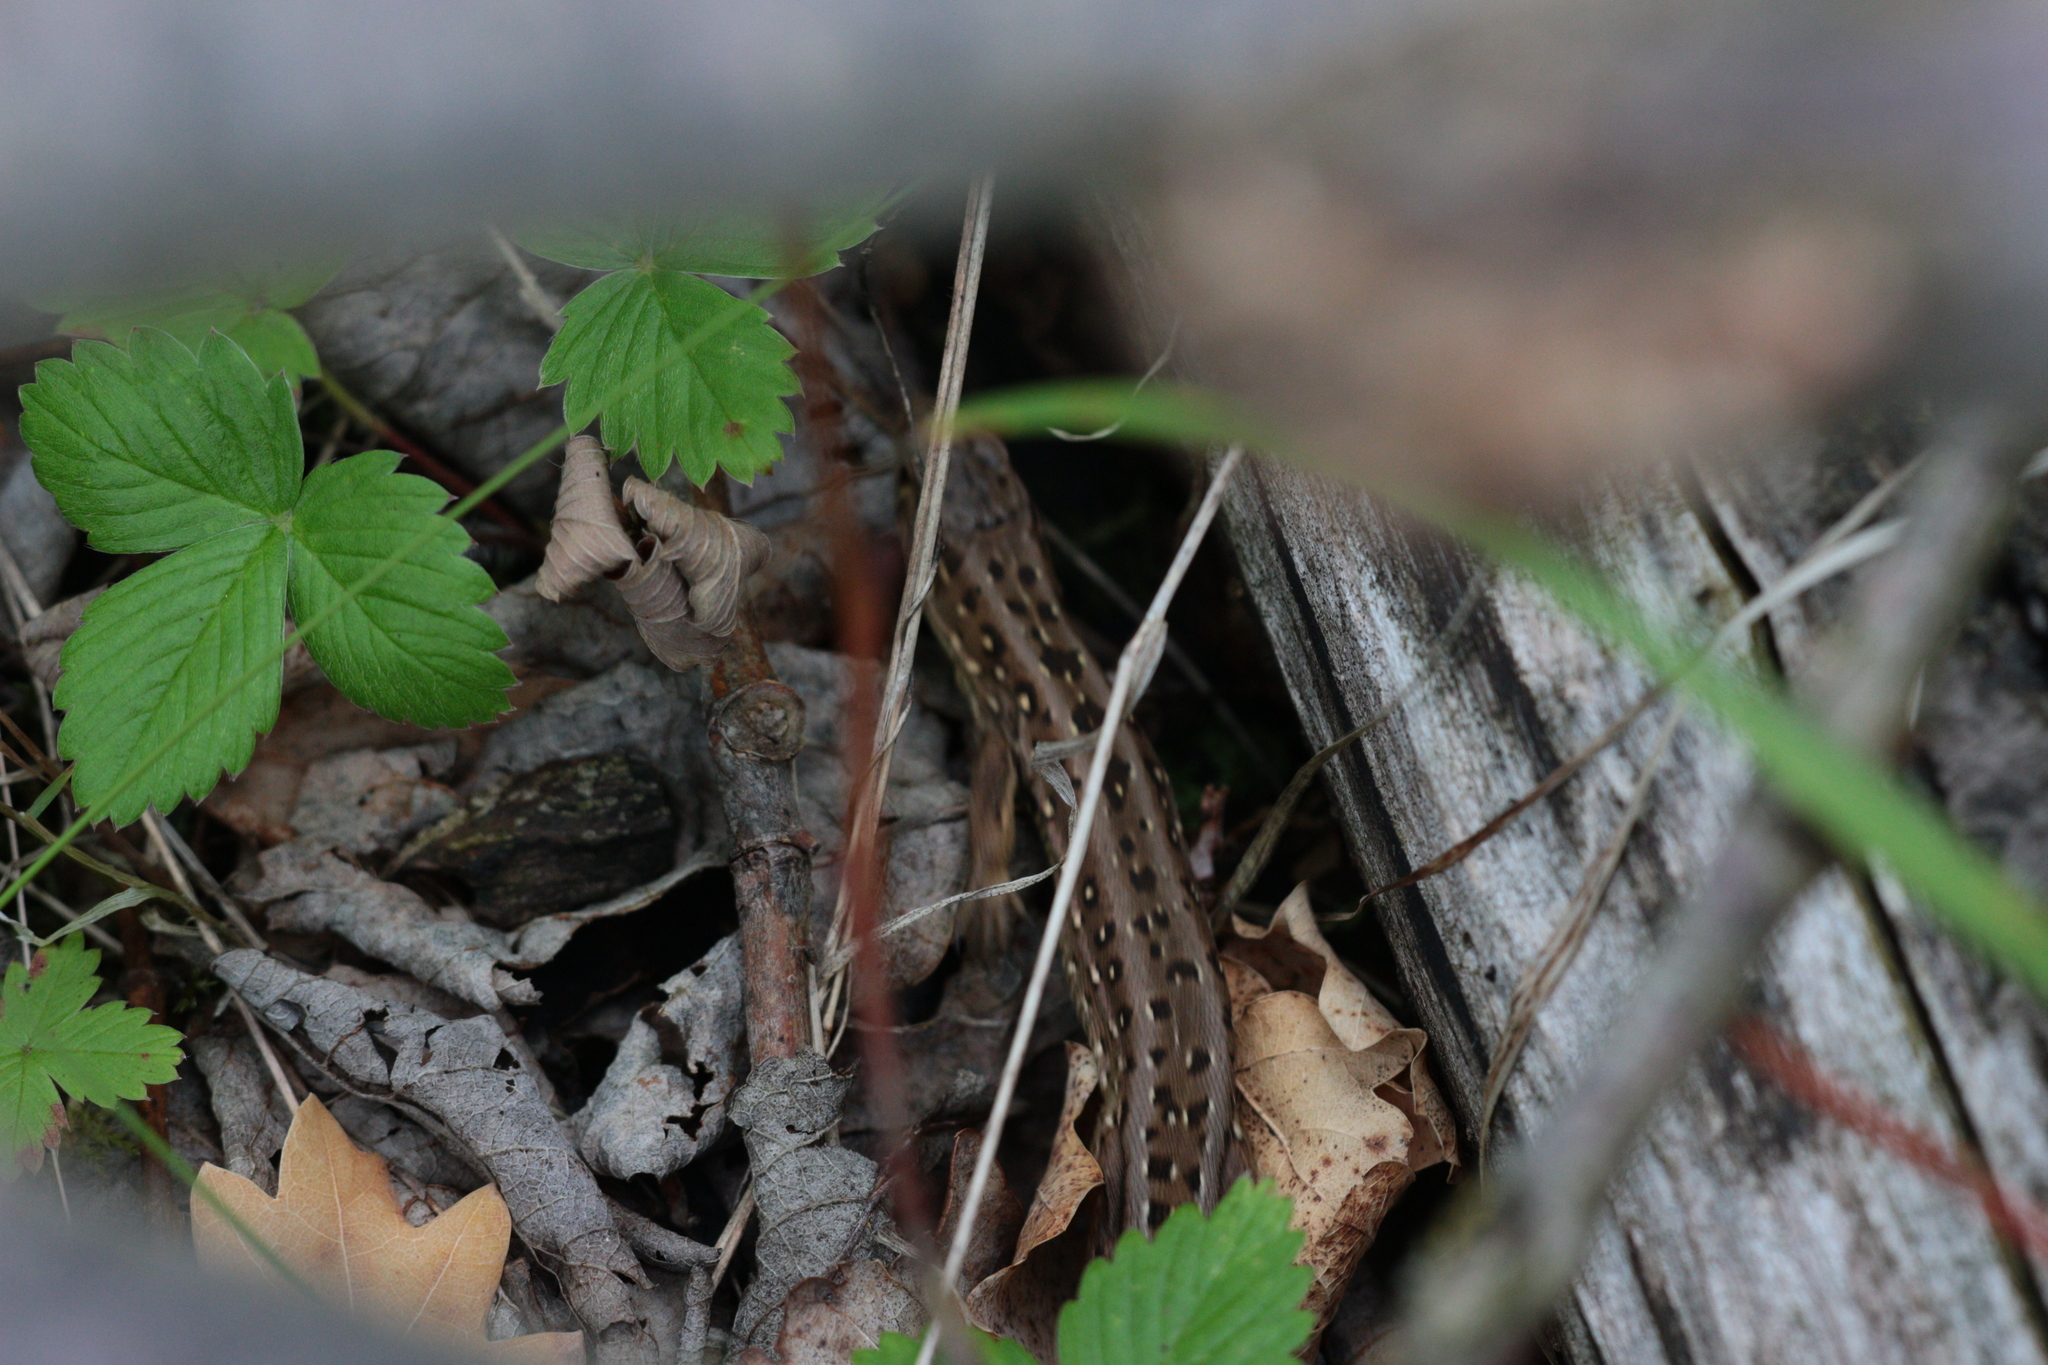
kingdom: Animalia
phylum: Chordata
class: Squamata
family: Lacertidae
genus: Lacerta
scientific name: Lacerta agilis
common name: Sand lizard
